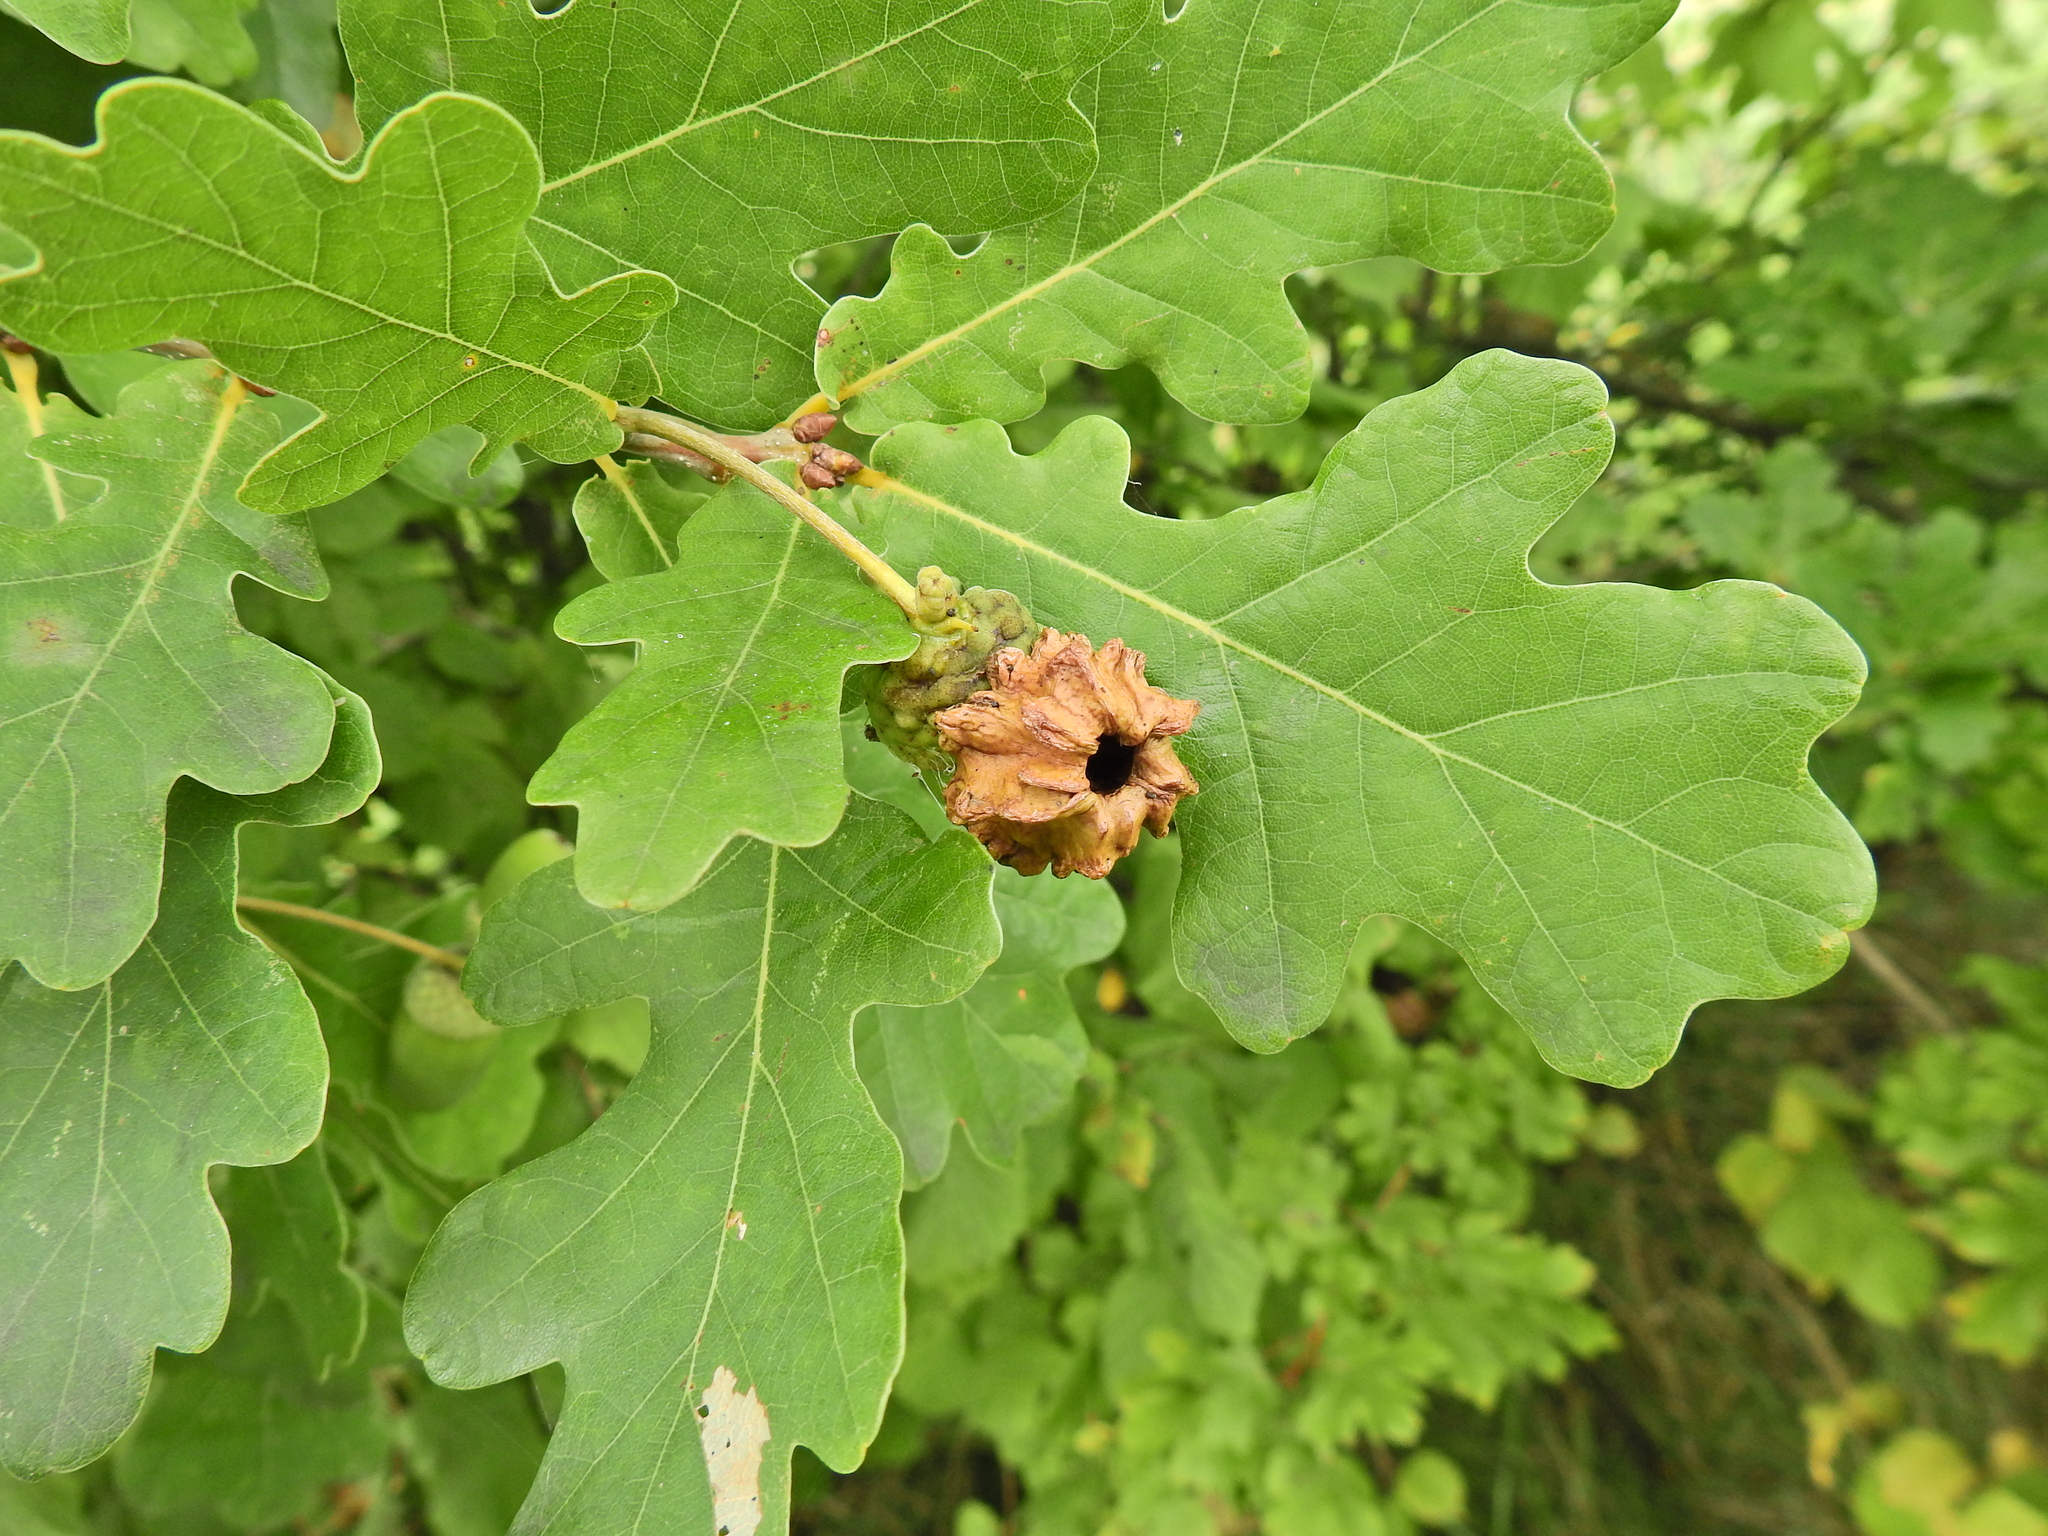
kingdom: Animalia
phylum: Arthropoda
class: Insecta
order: Hymenoptera
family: Cynipidae
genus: Andricus
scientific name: Andricus quercuscalicis
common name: Knopper gall
